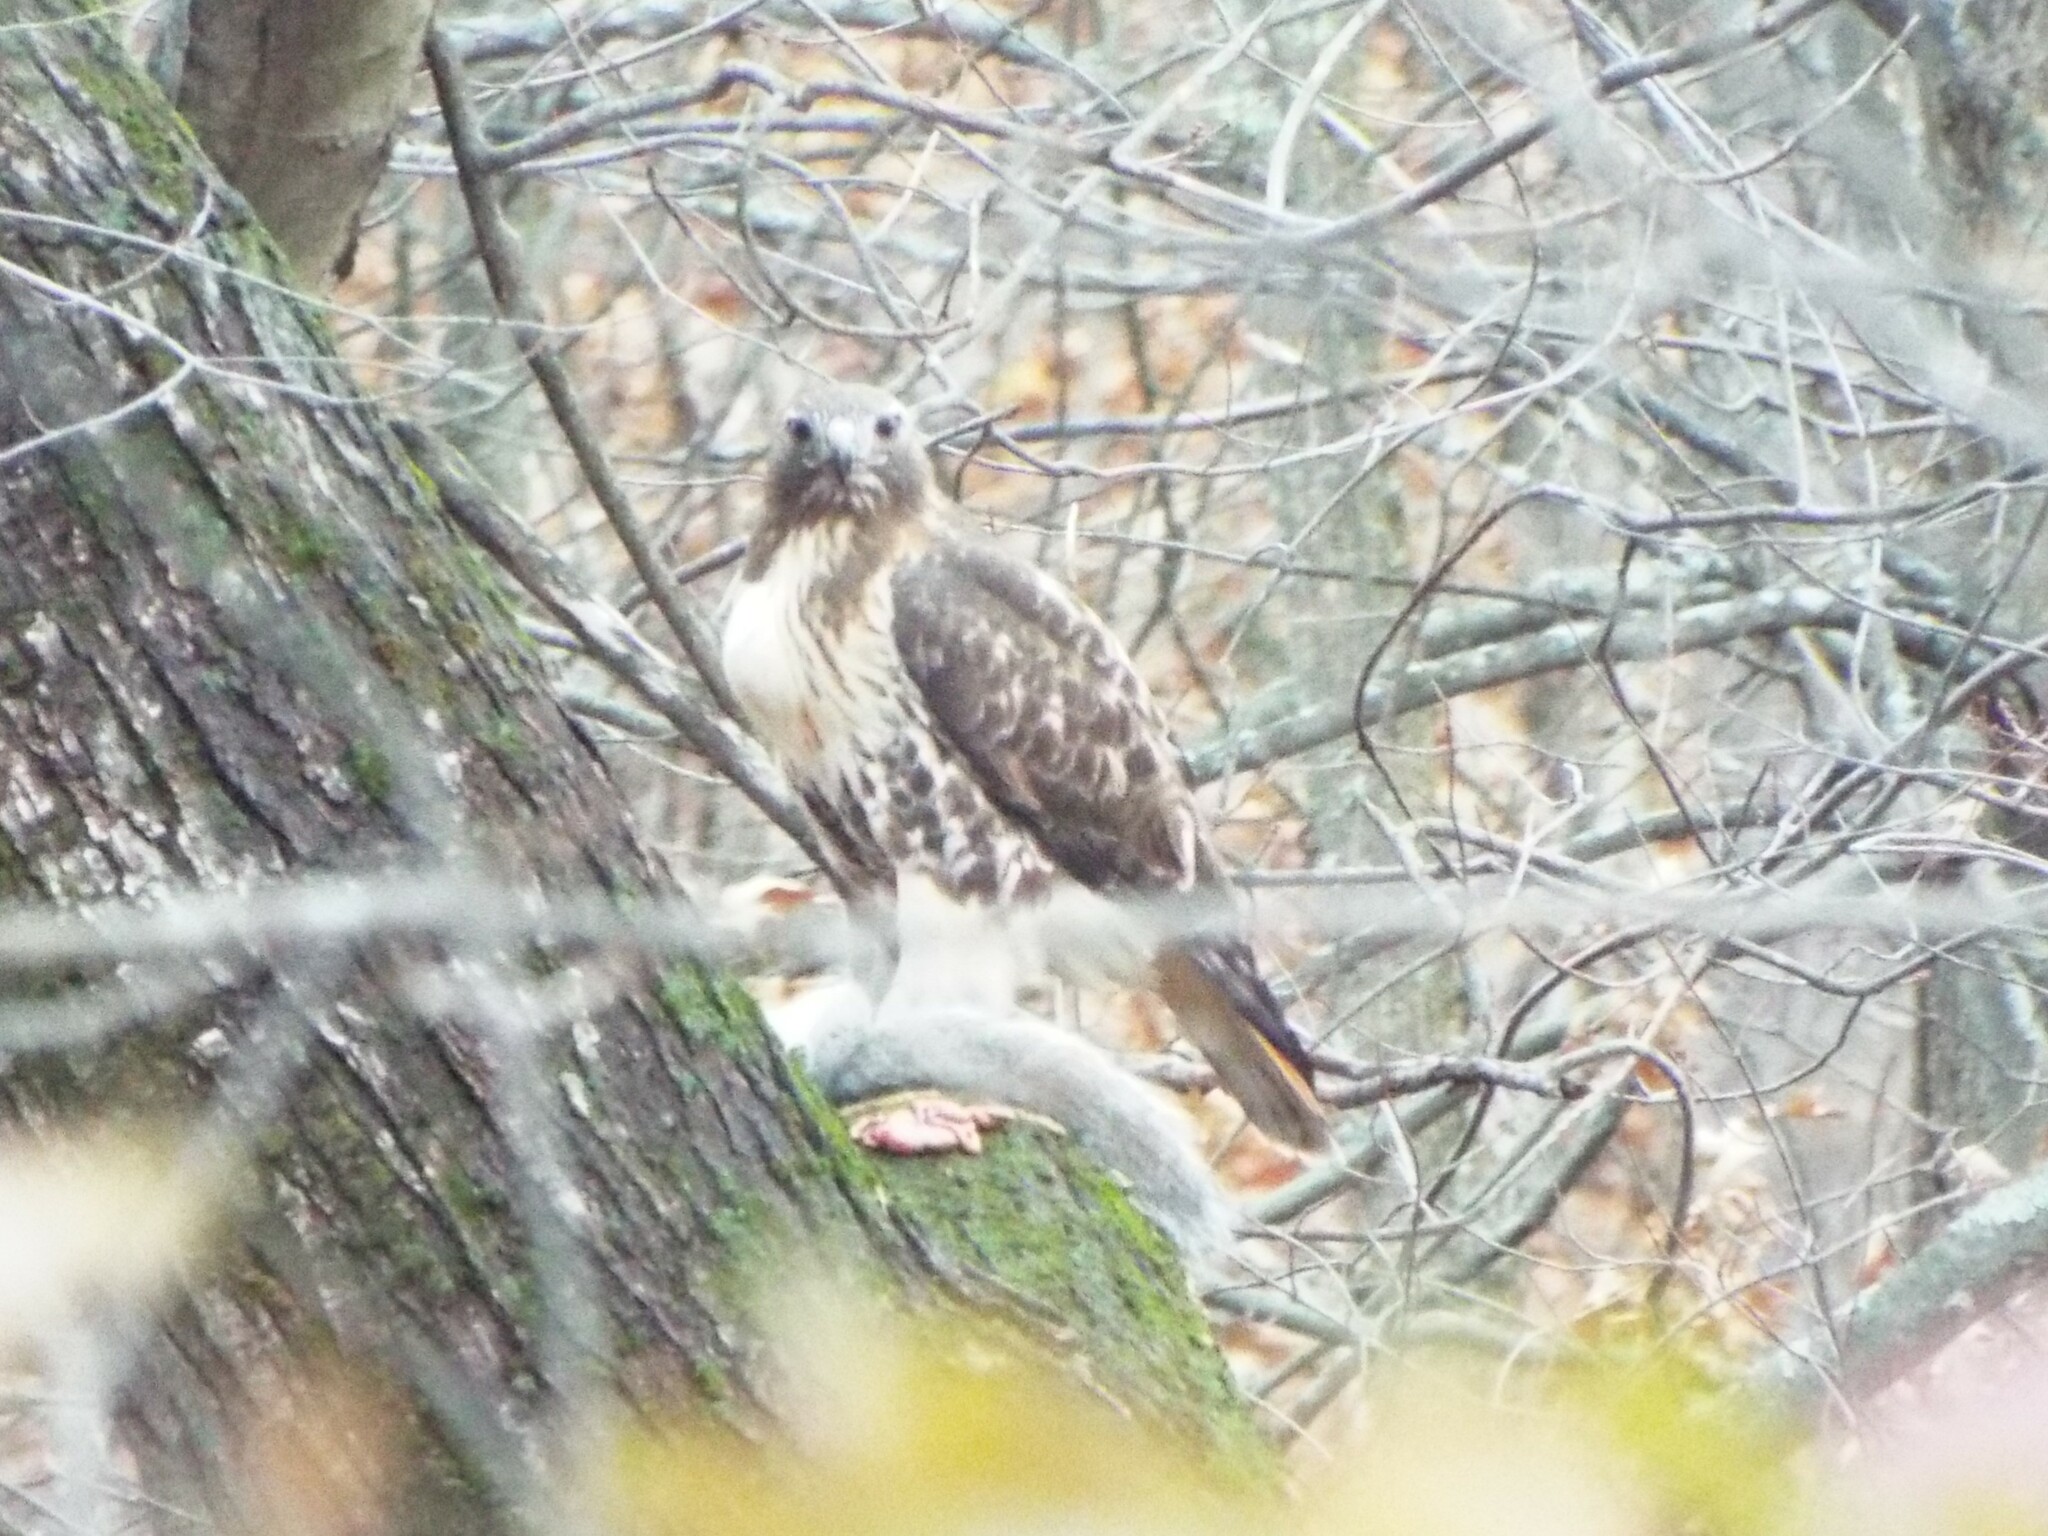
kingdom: Animalia
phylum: Chordata
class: Aves
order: Accipitriformes
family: Accipitridae
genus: Buteo
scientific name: Buteo jamaicensis
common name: Red-tailed hawk
